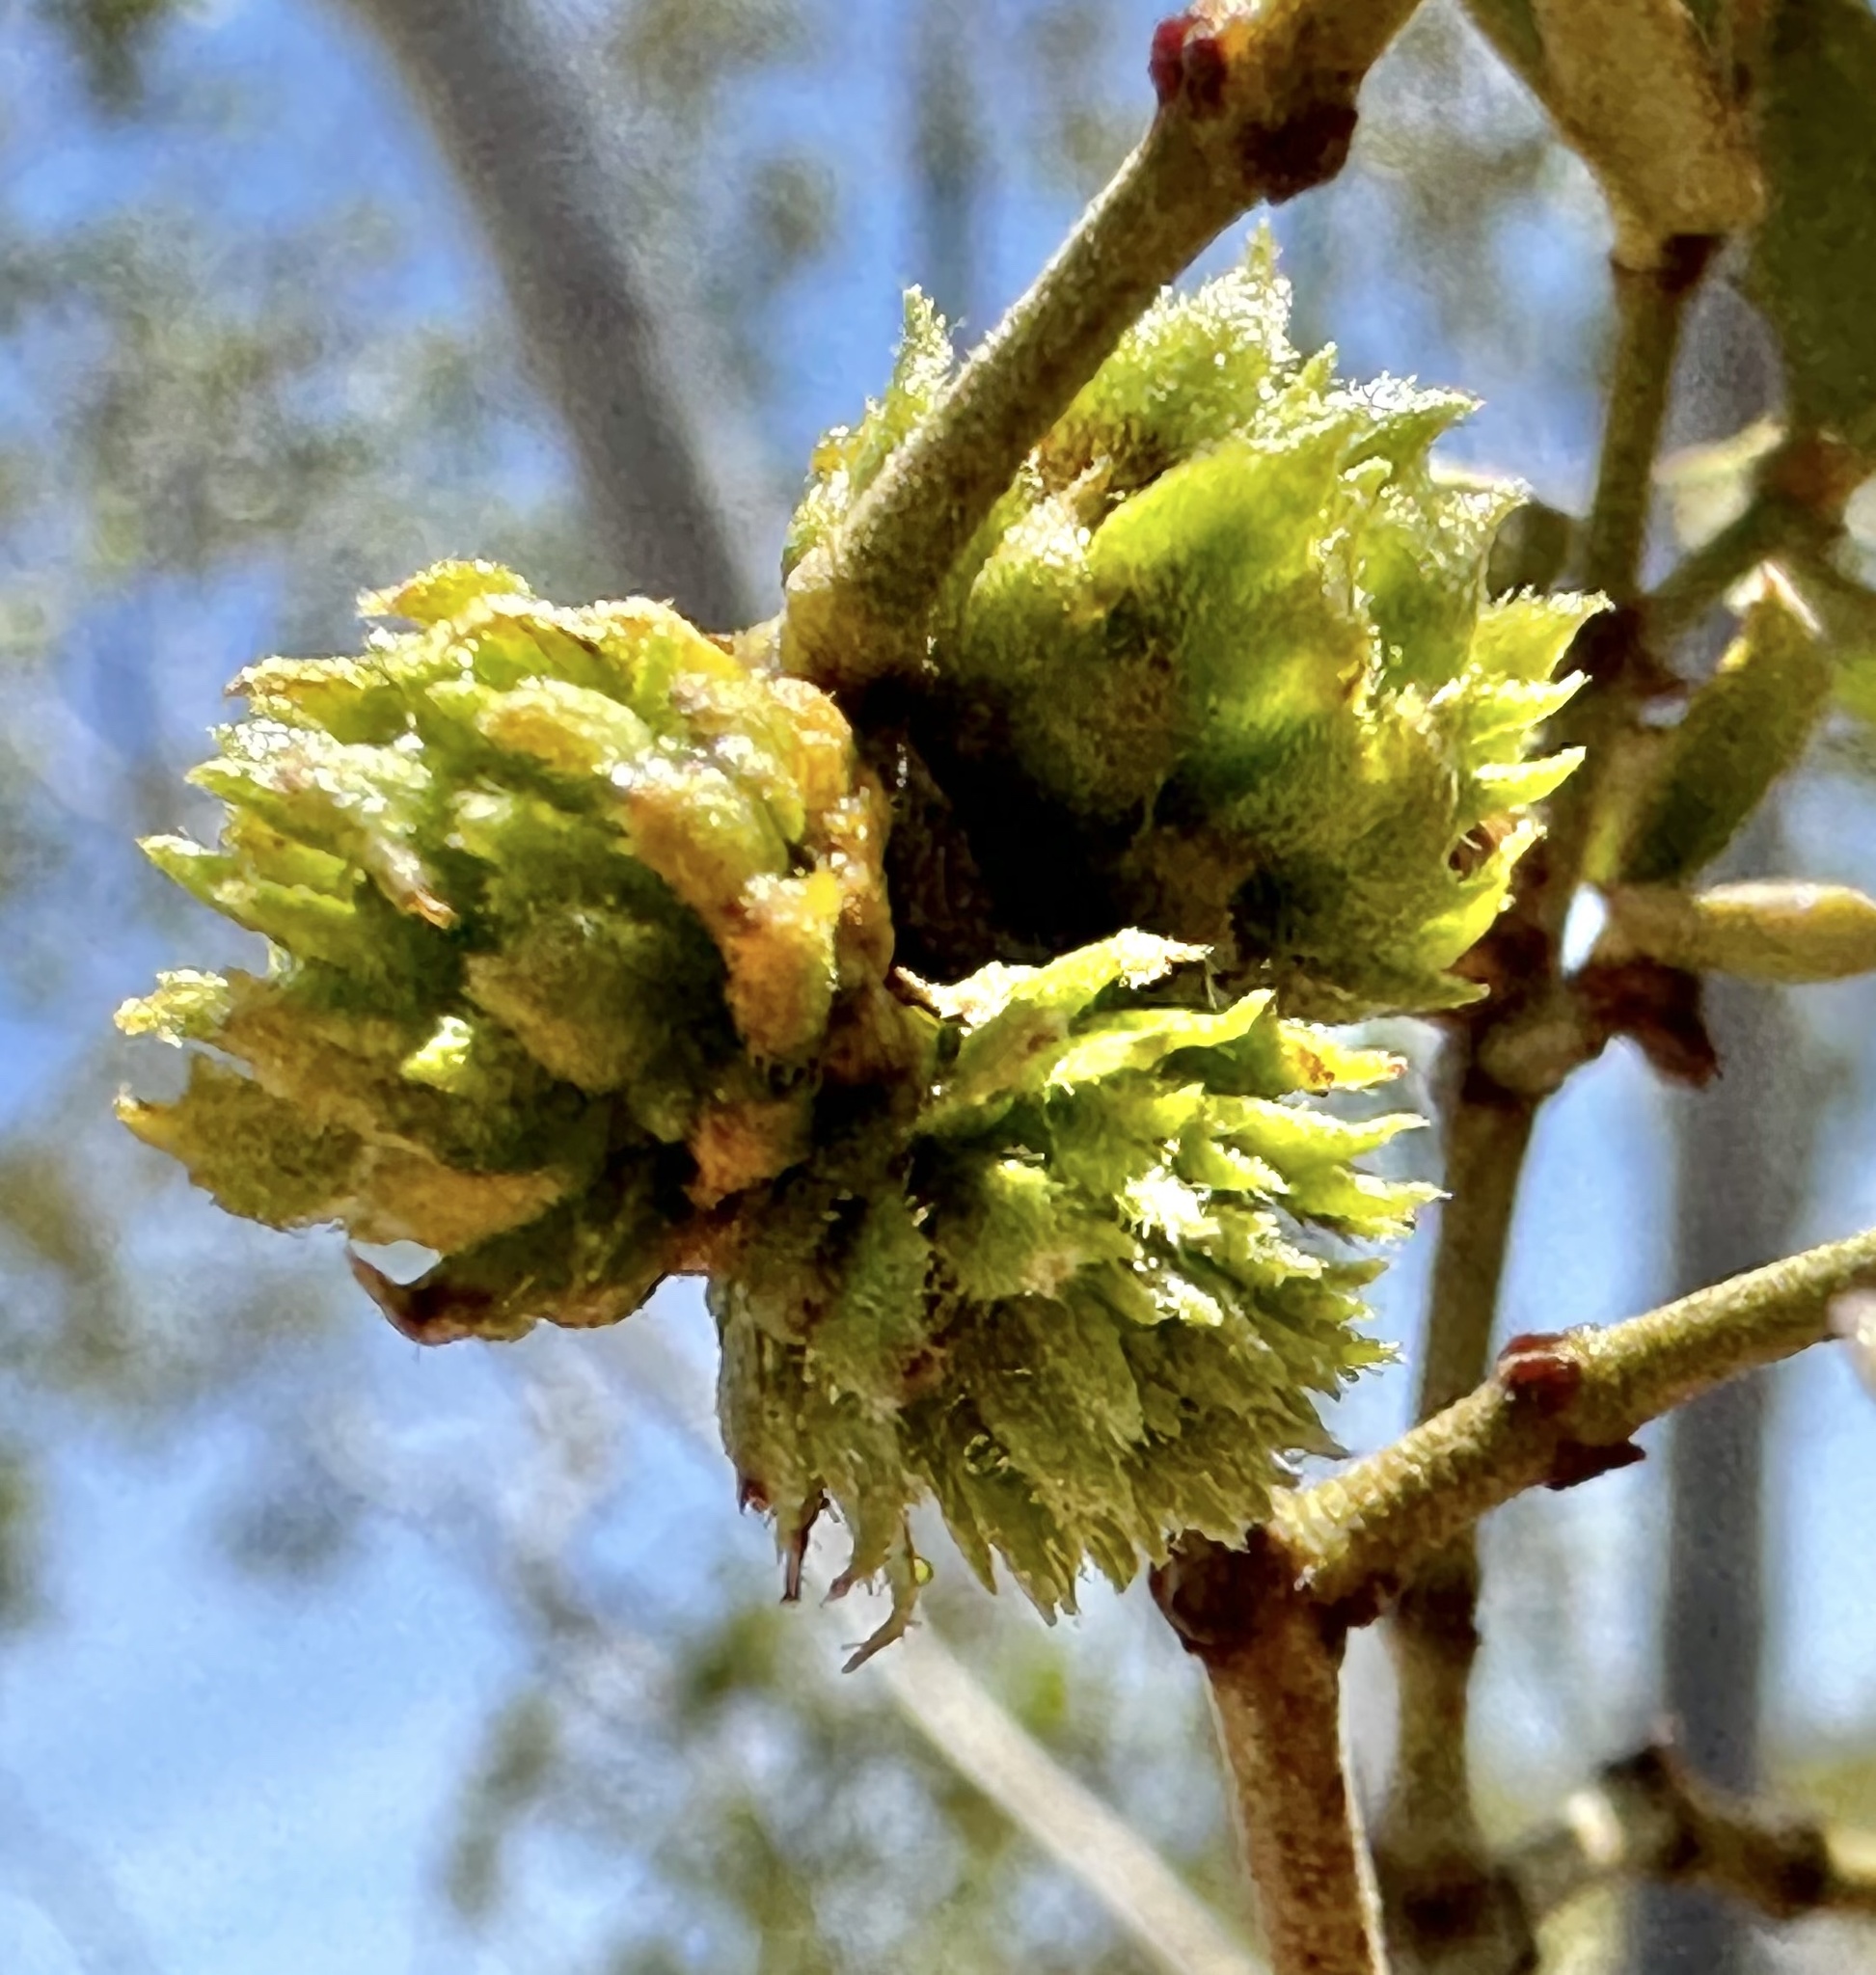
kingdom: Animalia
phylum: Arthropoda
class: Insecta
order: Diptera
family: Cecidomyiidae
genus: Asphondylia
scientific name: Asphondylia foliosa
